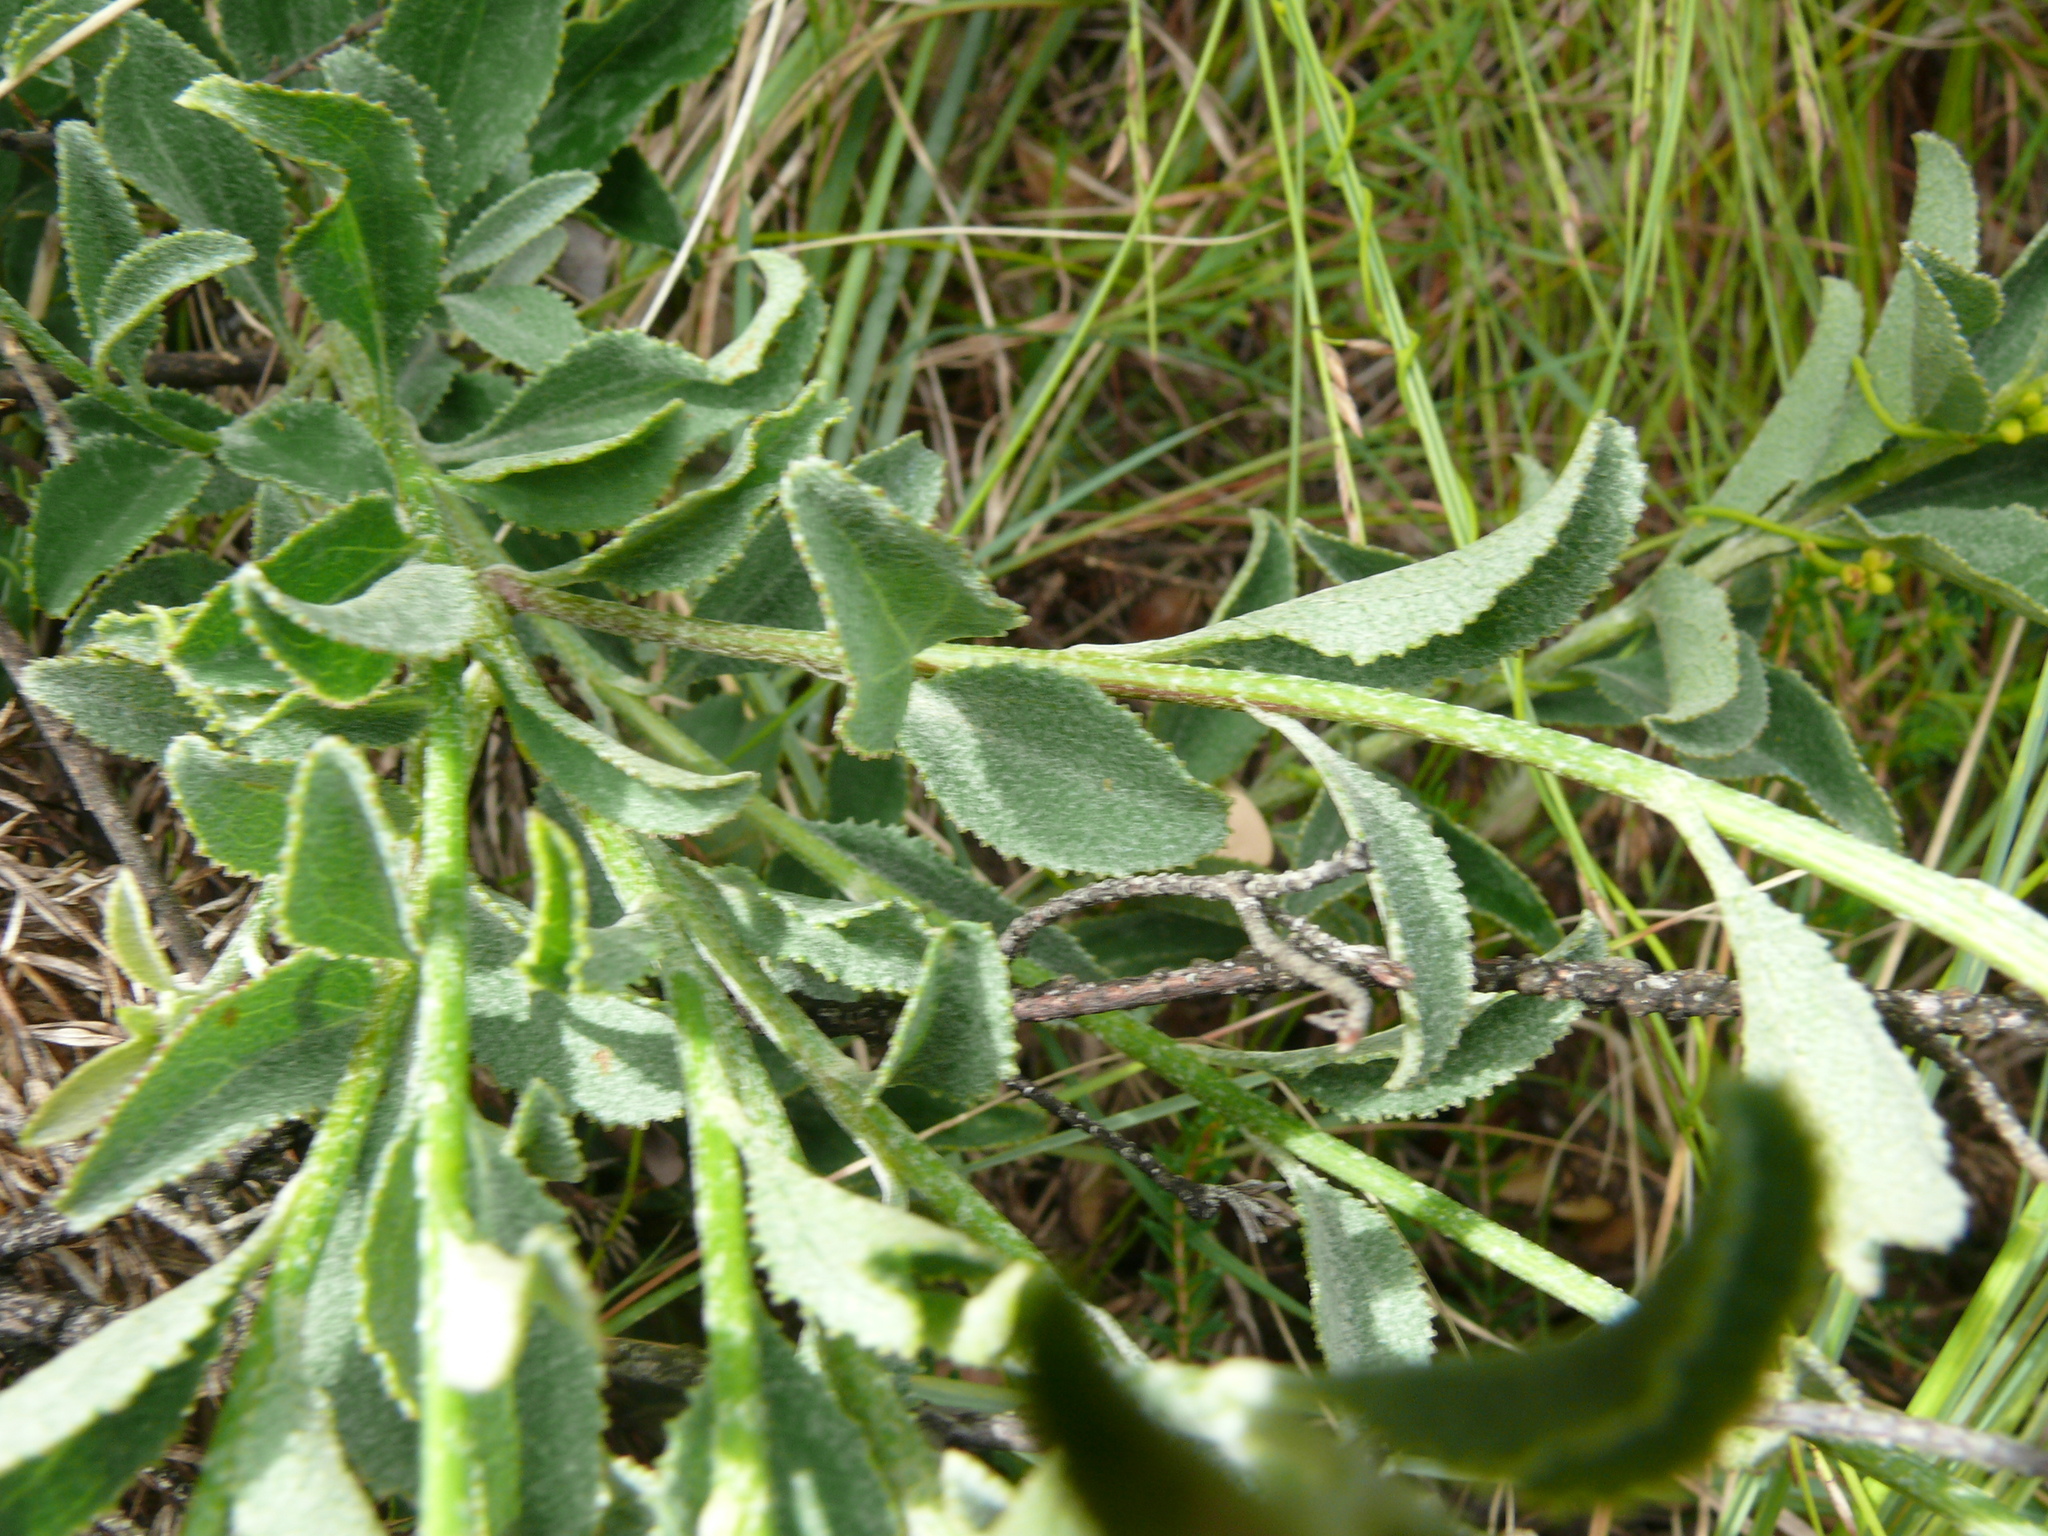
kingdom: Plantae
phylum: Tracheophyta
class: Magnoliopsida
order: Asterales
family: Asteraceae
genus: Senecio
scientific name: Senecio crenatus
